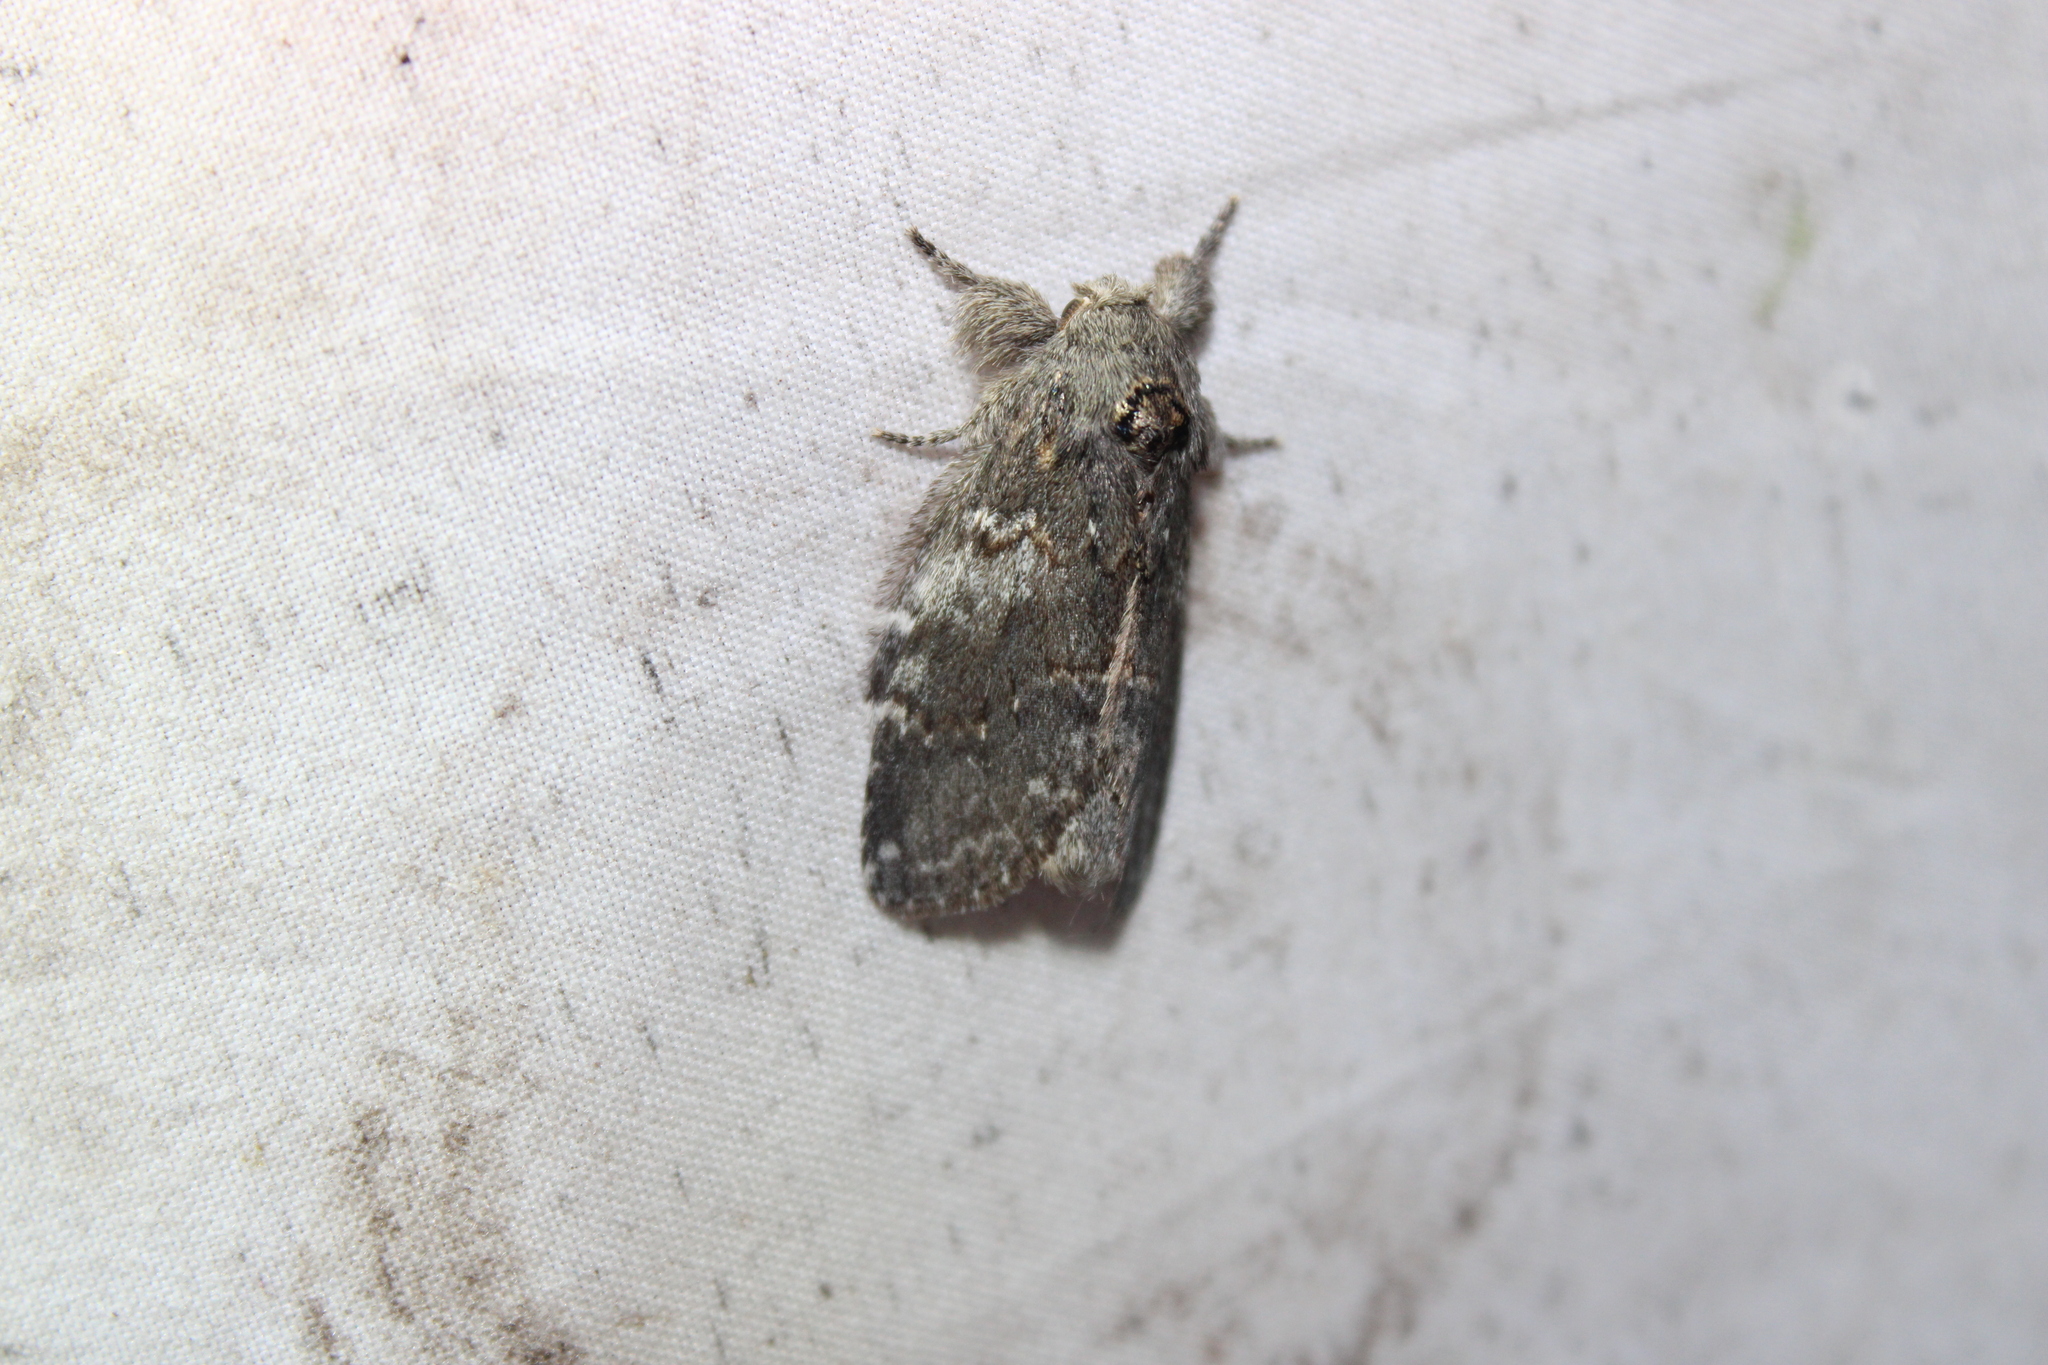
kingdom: Animalia
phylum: Arthropoda
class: Insecta
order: Lepidoptera
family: Notodontidae
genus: Peridea
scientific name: Peridea angulosa
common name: Angulose prominent
